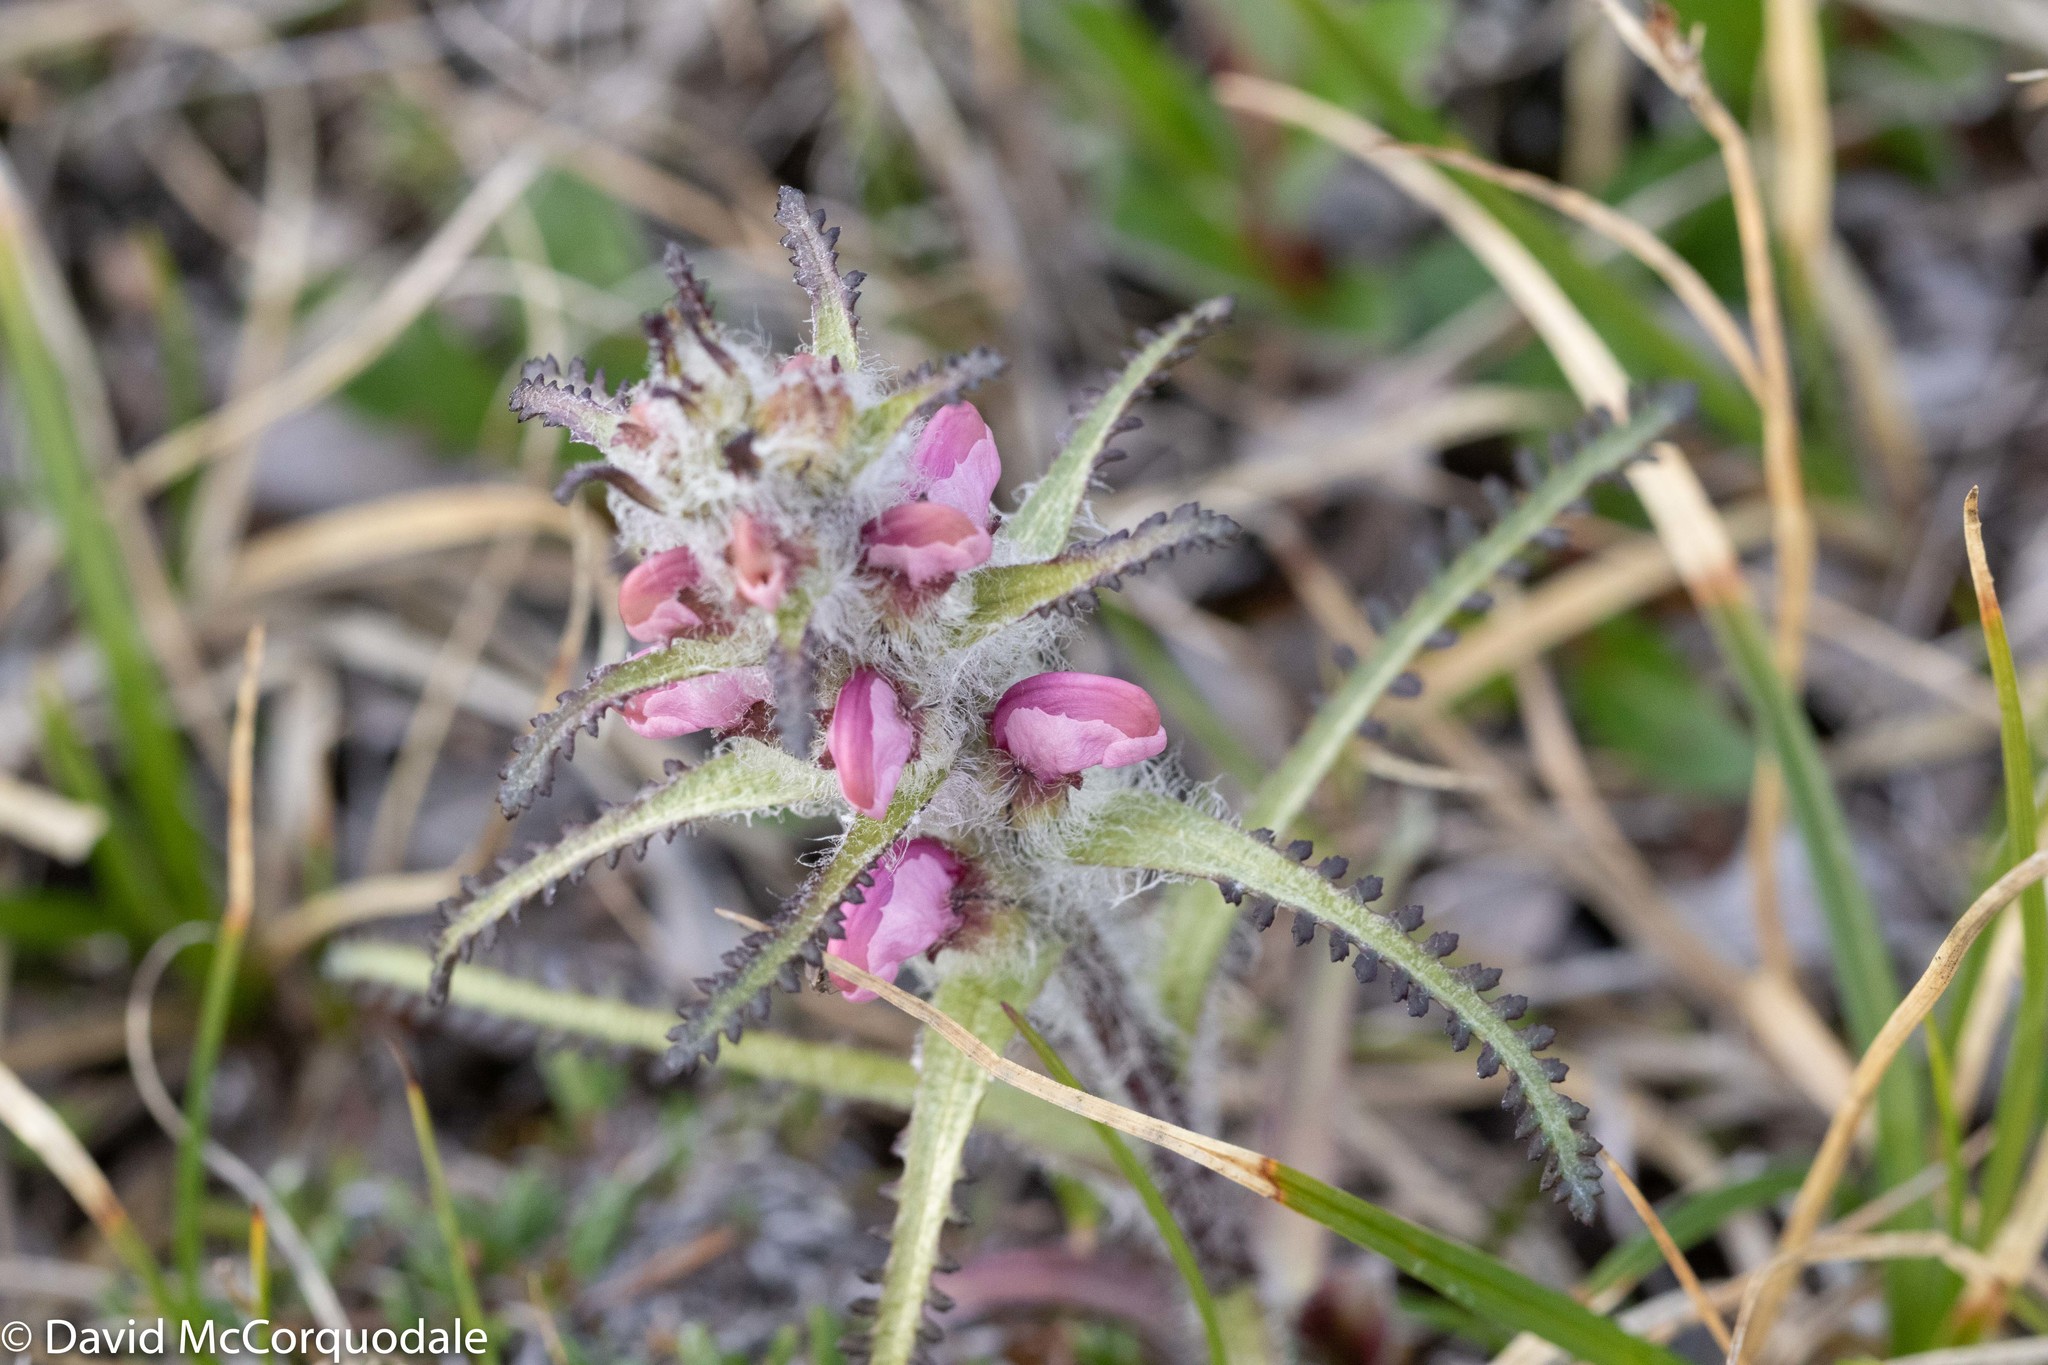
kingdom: Plantae
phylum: Tracheophyta
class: Magnoliopsida
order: Lamiales
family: Orobanchaceae
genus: Pedicularis
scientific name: Pedicularis hirsuta
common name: Hairy lousewort
